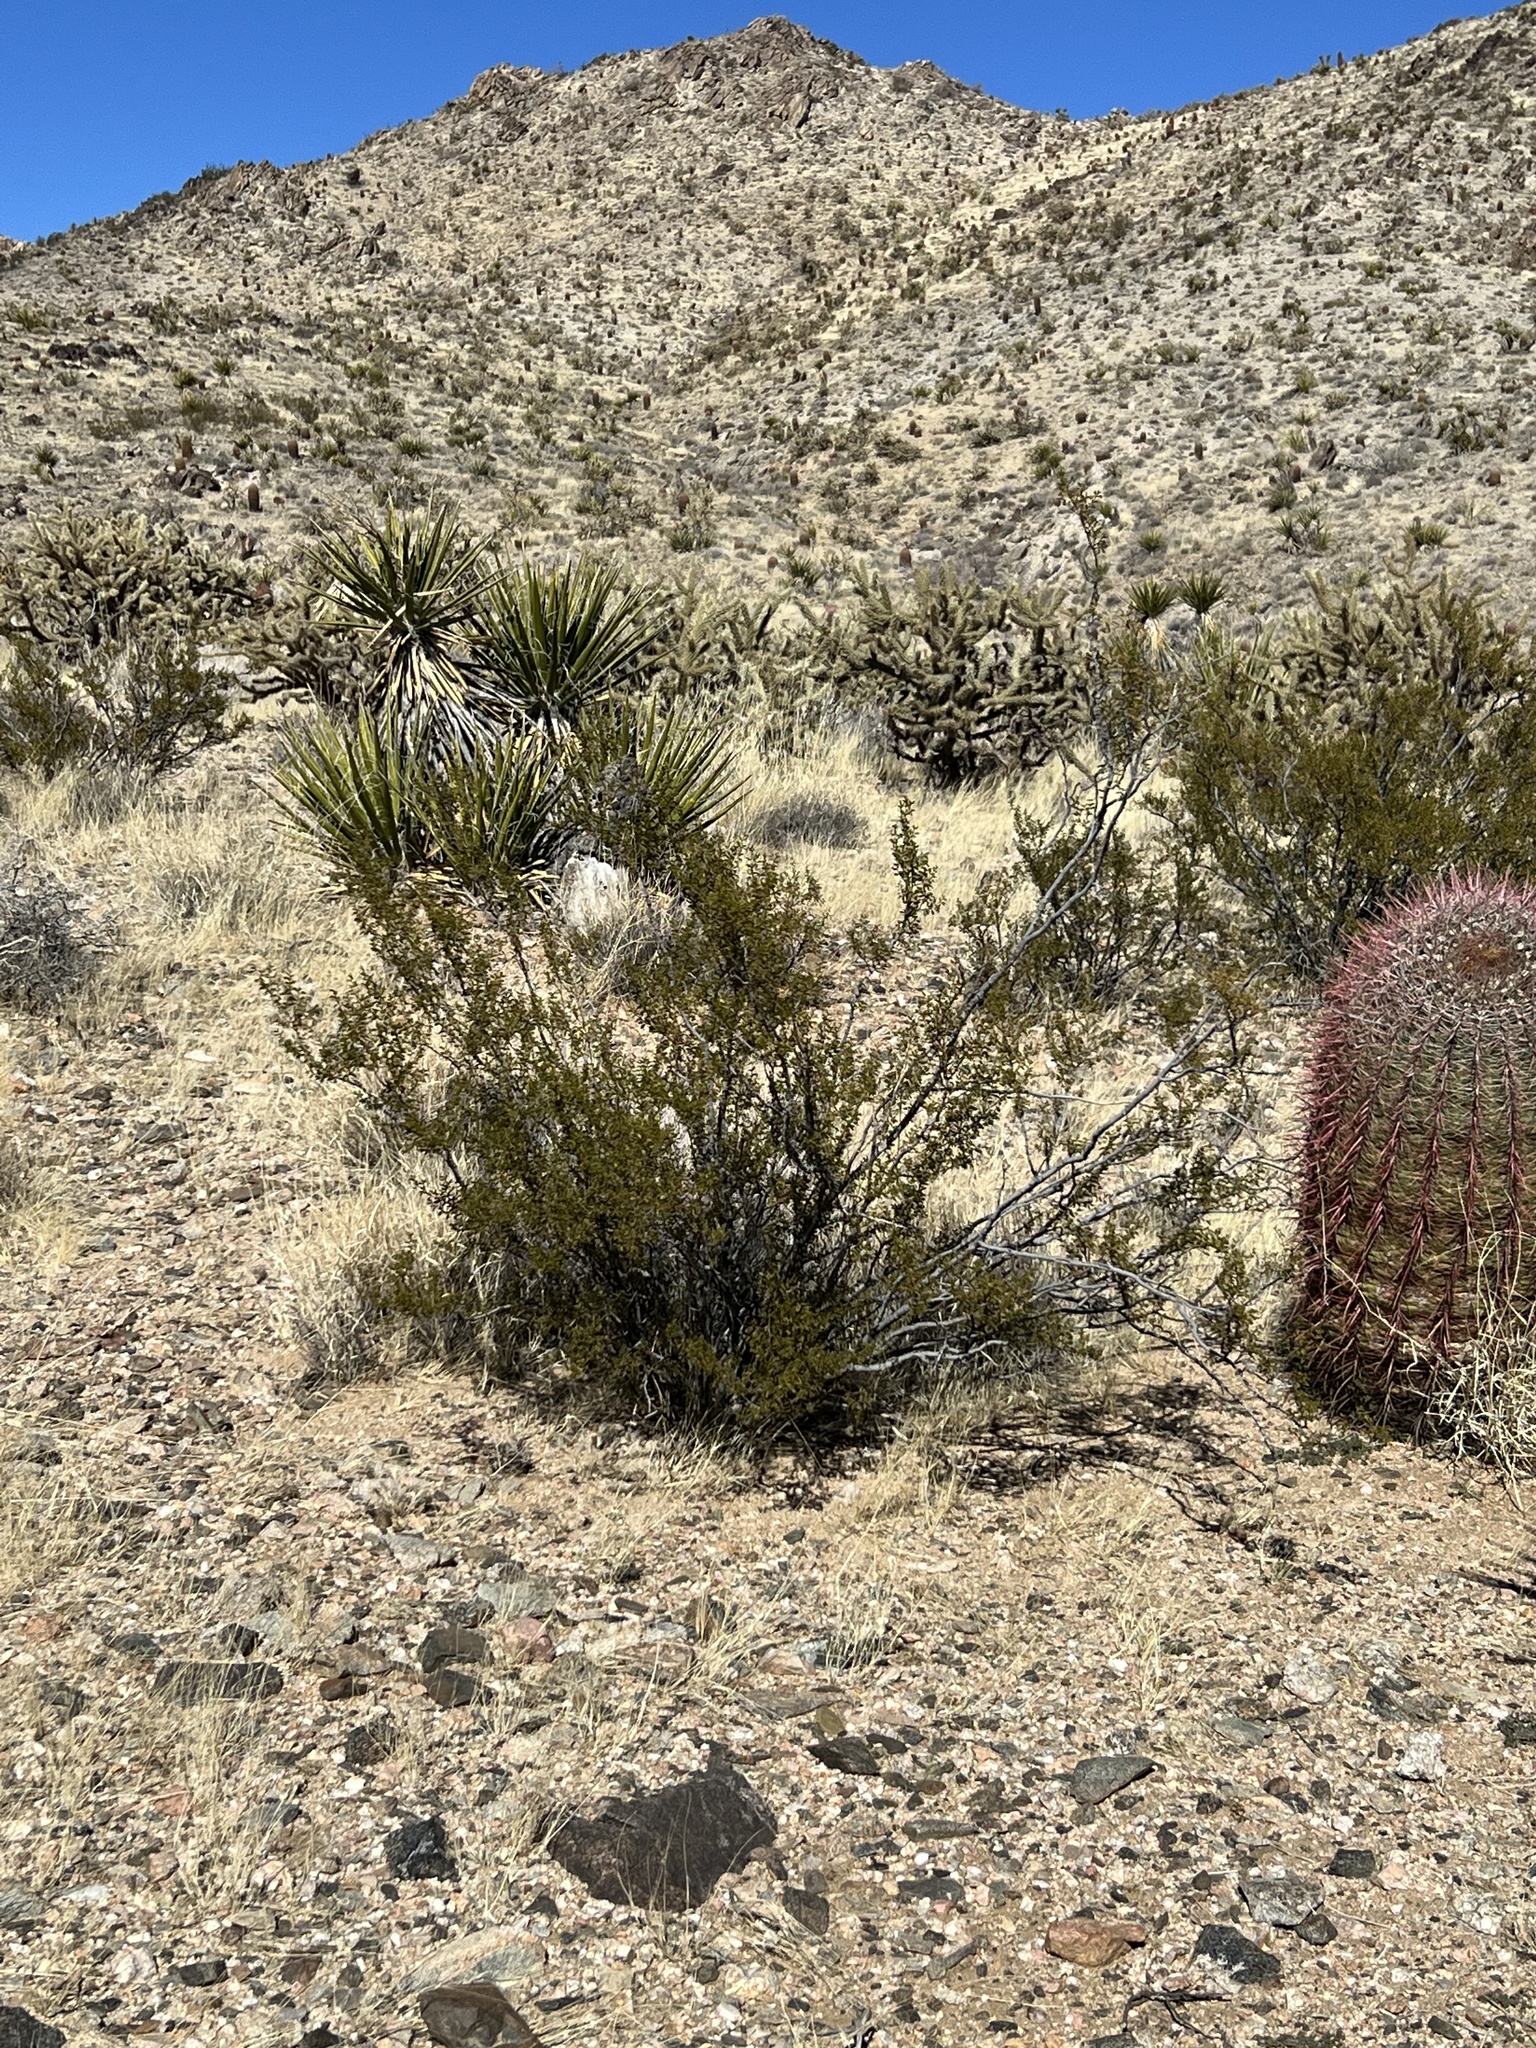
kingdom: Plantae
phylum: Tracheophyta
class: Magnoliopsida
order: Zygophyllales
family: Zygophyllaceae
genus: Larrea
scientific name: Larrea tridentata
